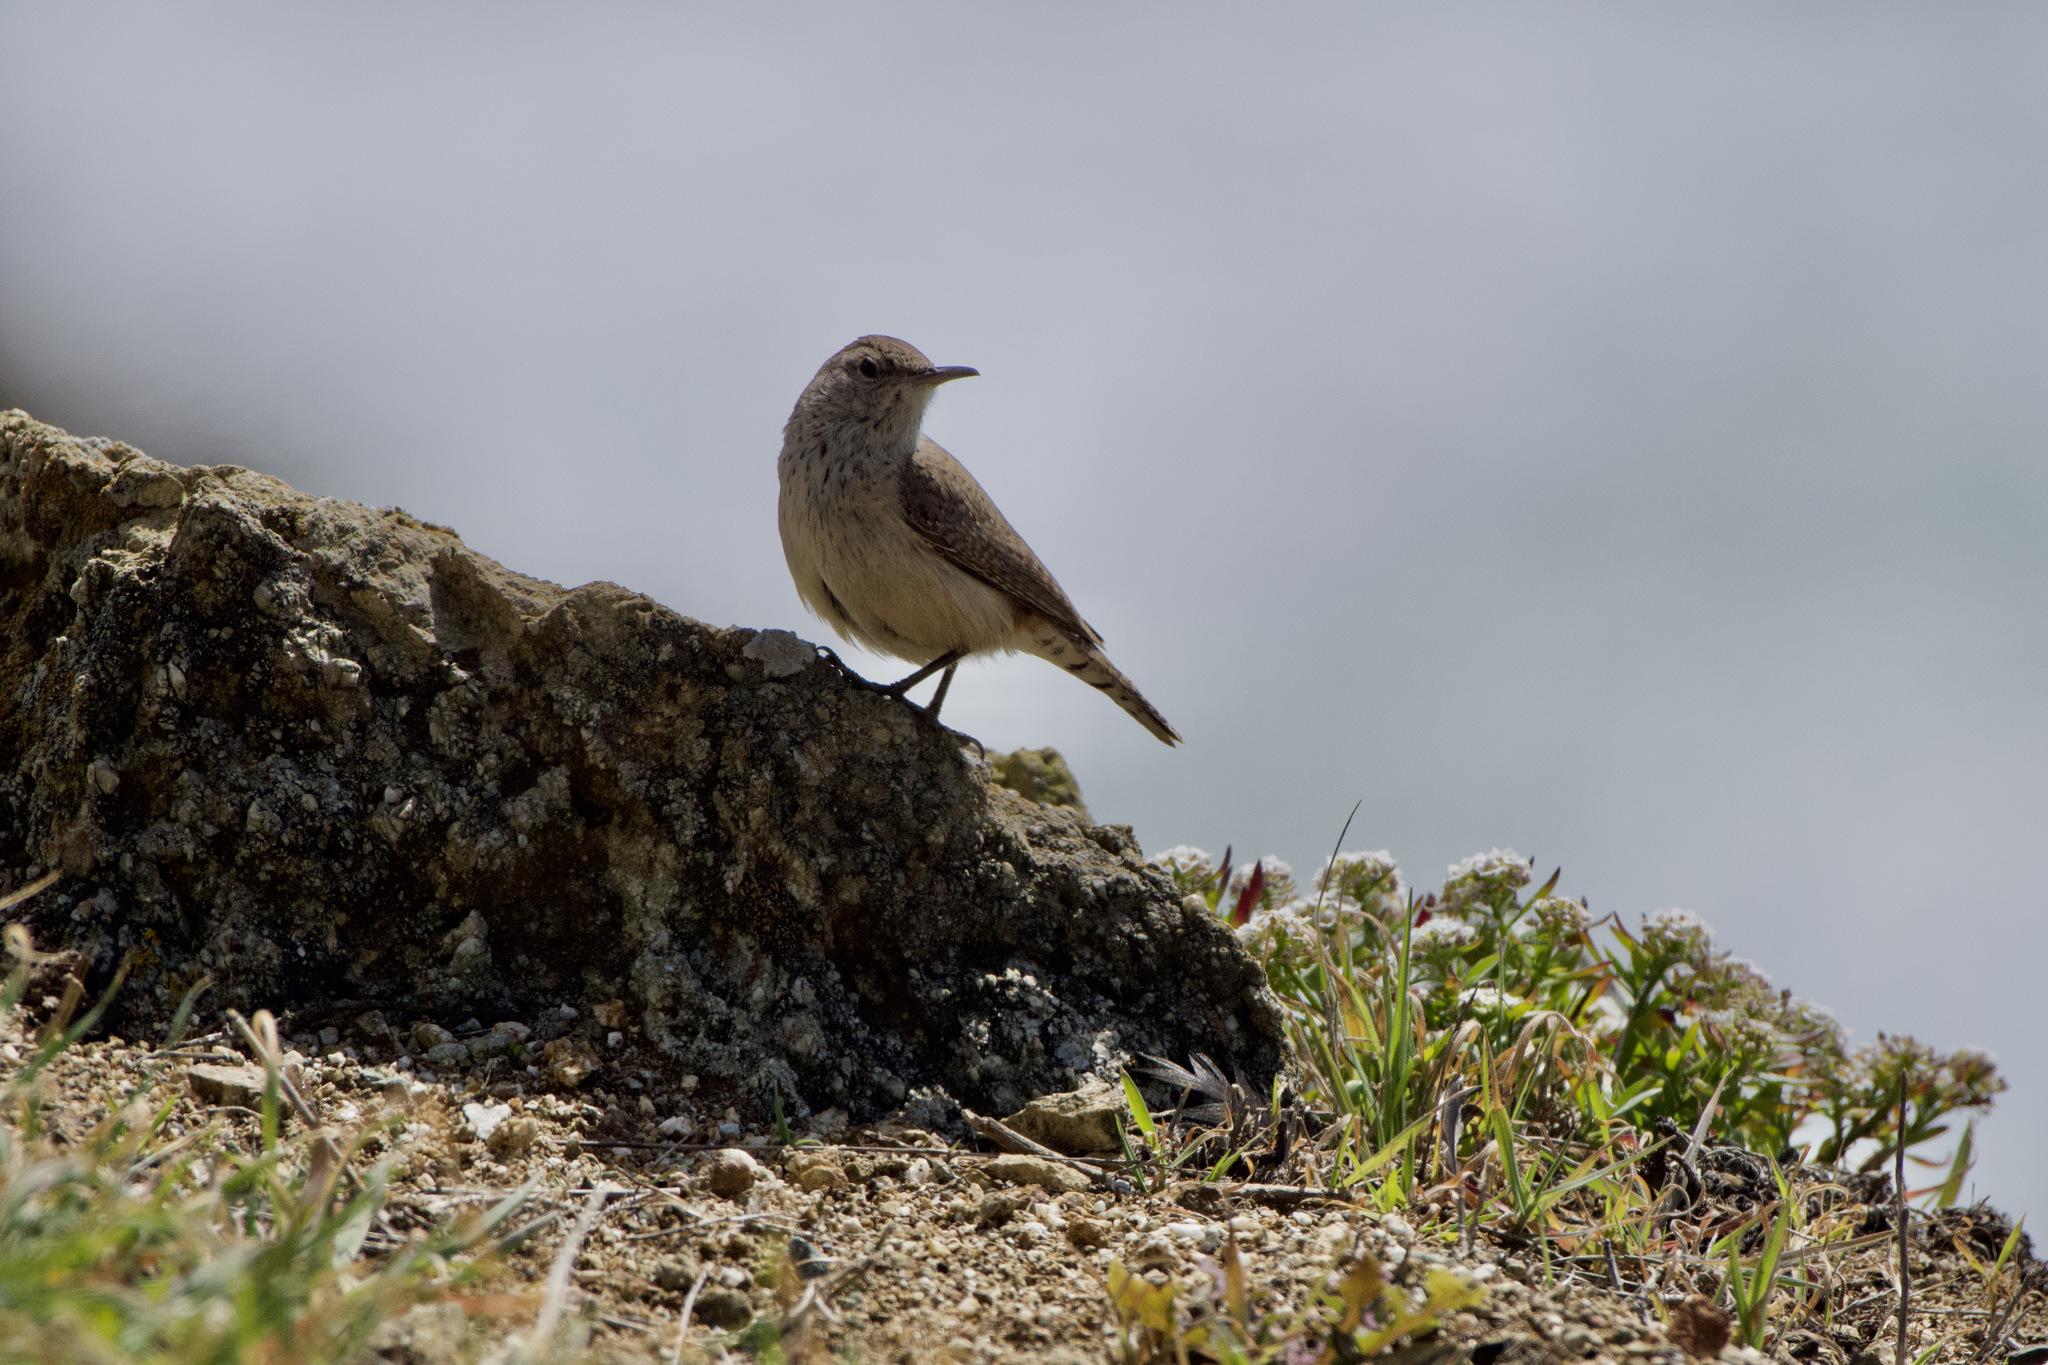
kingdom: Animalia
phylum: Chordata
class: Aves
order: Passeriformes
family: Troglodytidae
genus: Salpinctes
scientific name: Salpinctes obsoletus
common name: Rock wren
